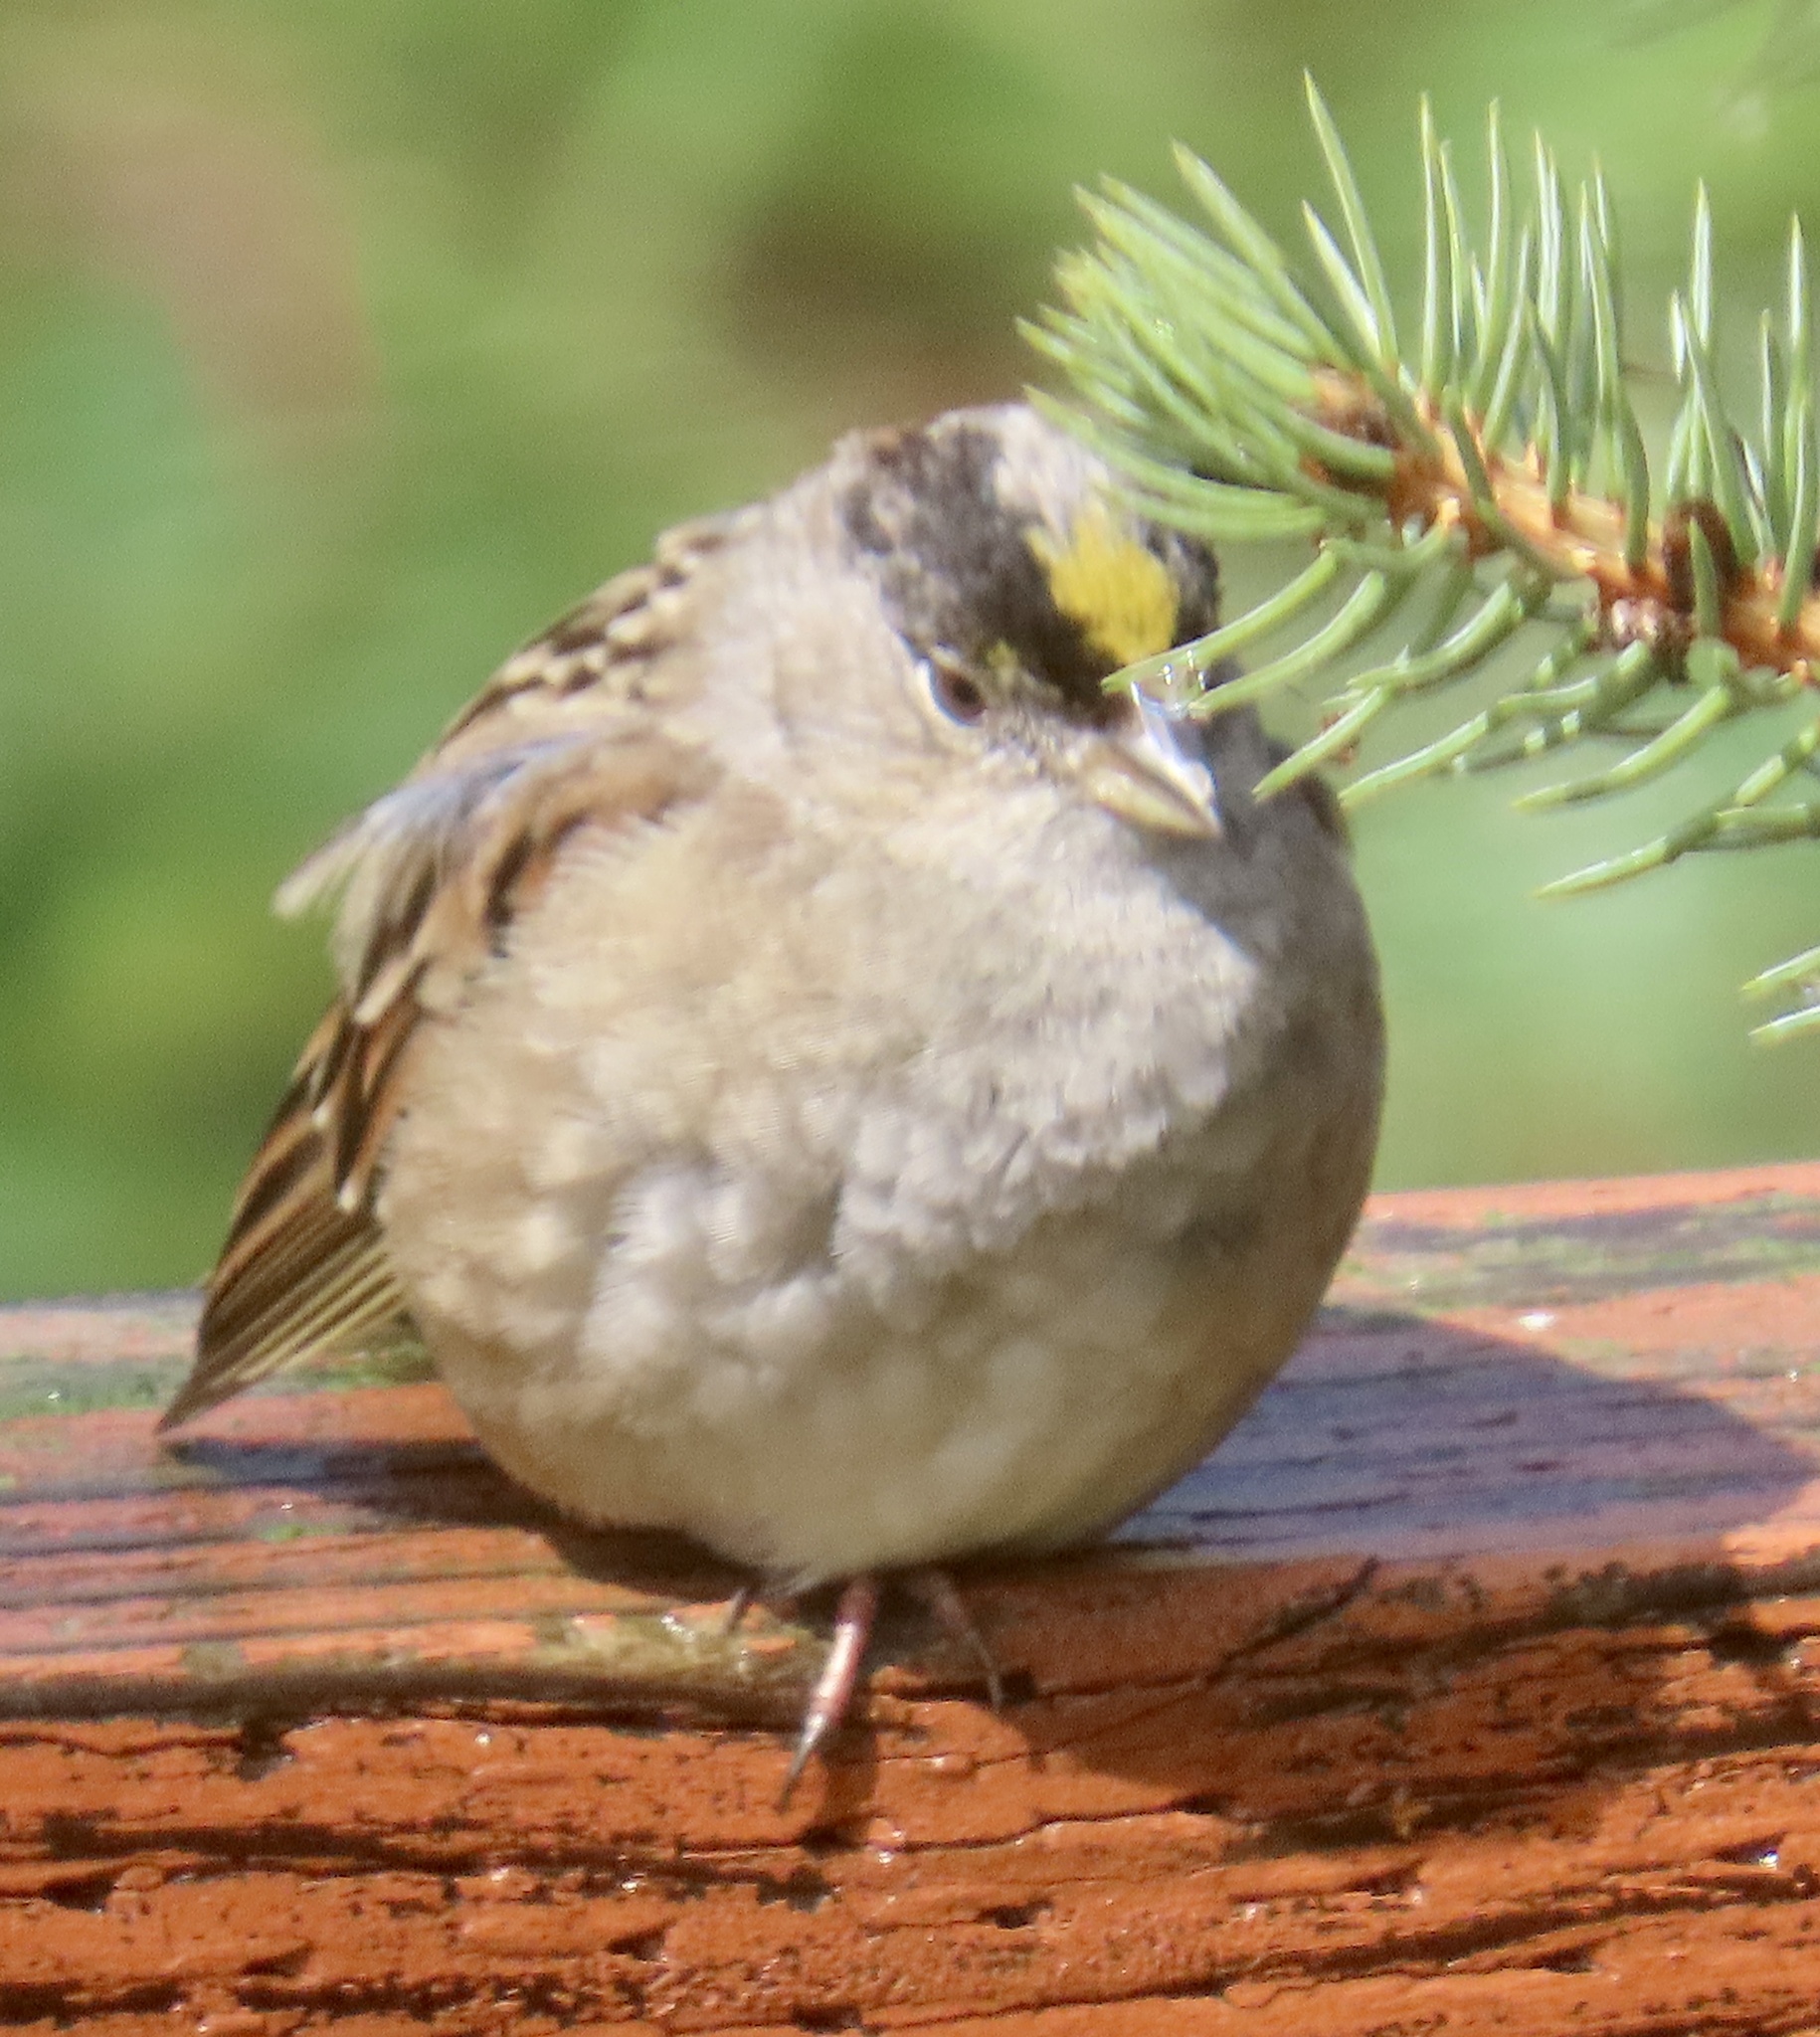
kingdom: Animalia
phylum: Chordata
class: Aves
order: Passeriformes
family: Passerellidae
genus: Zonotrichia
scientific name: Zonotrichia atricapilla
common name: Golden-crowned sparrow
